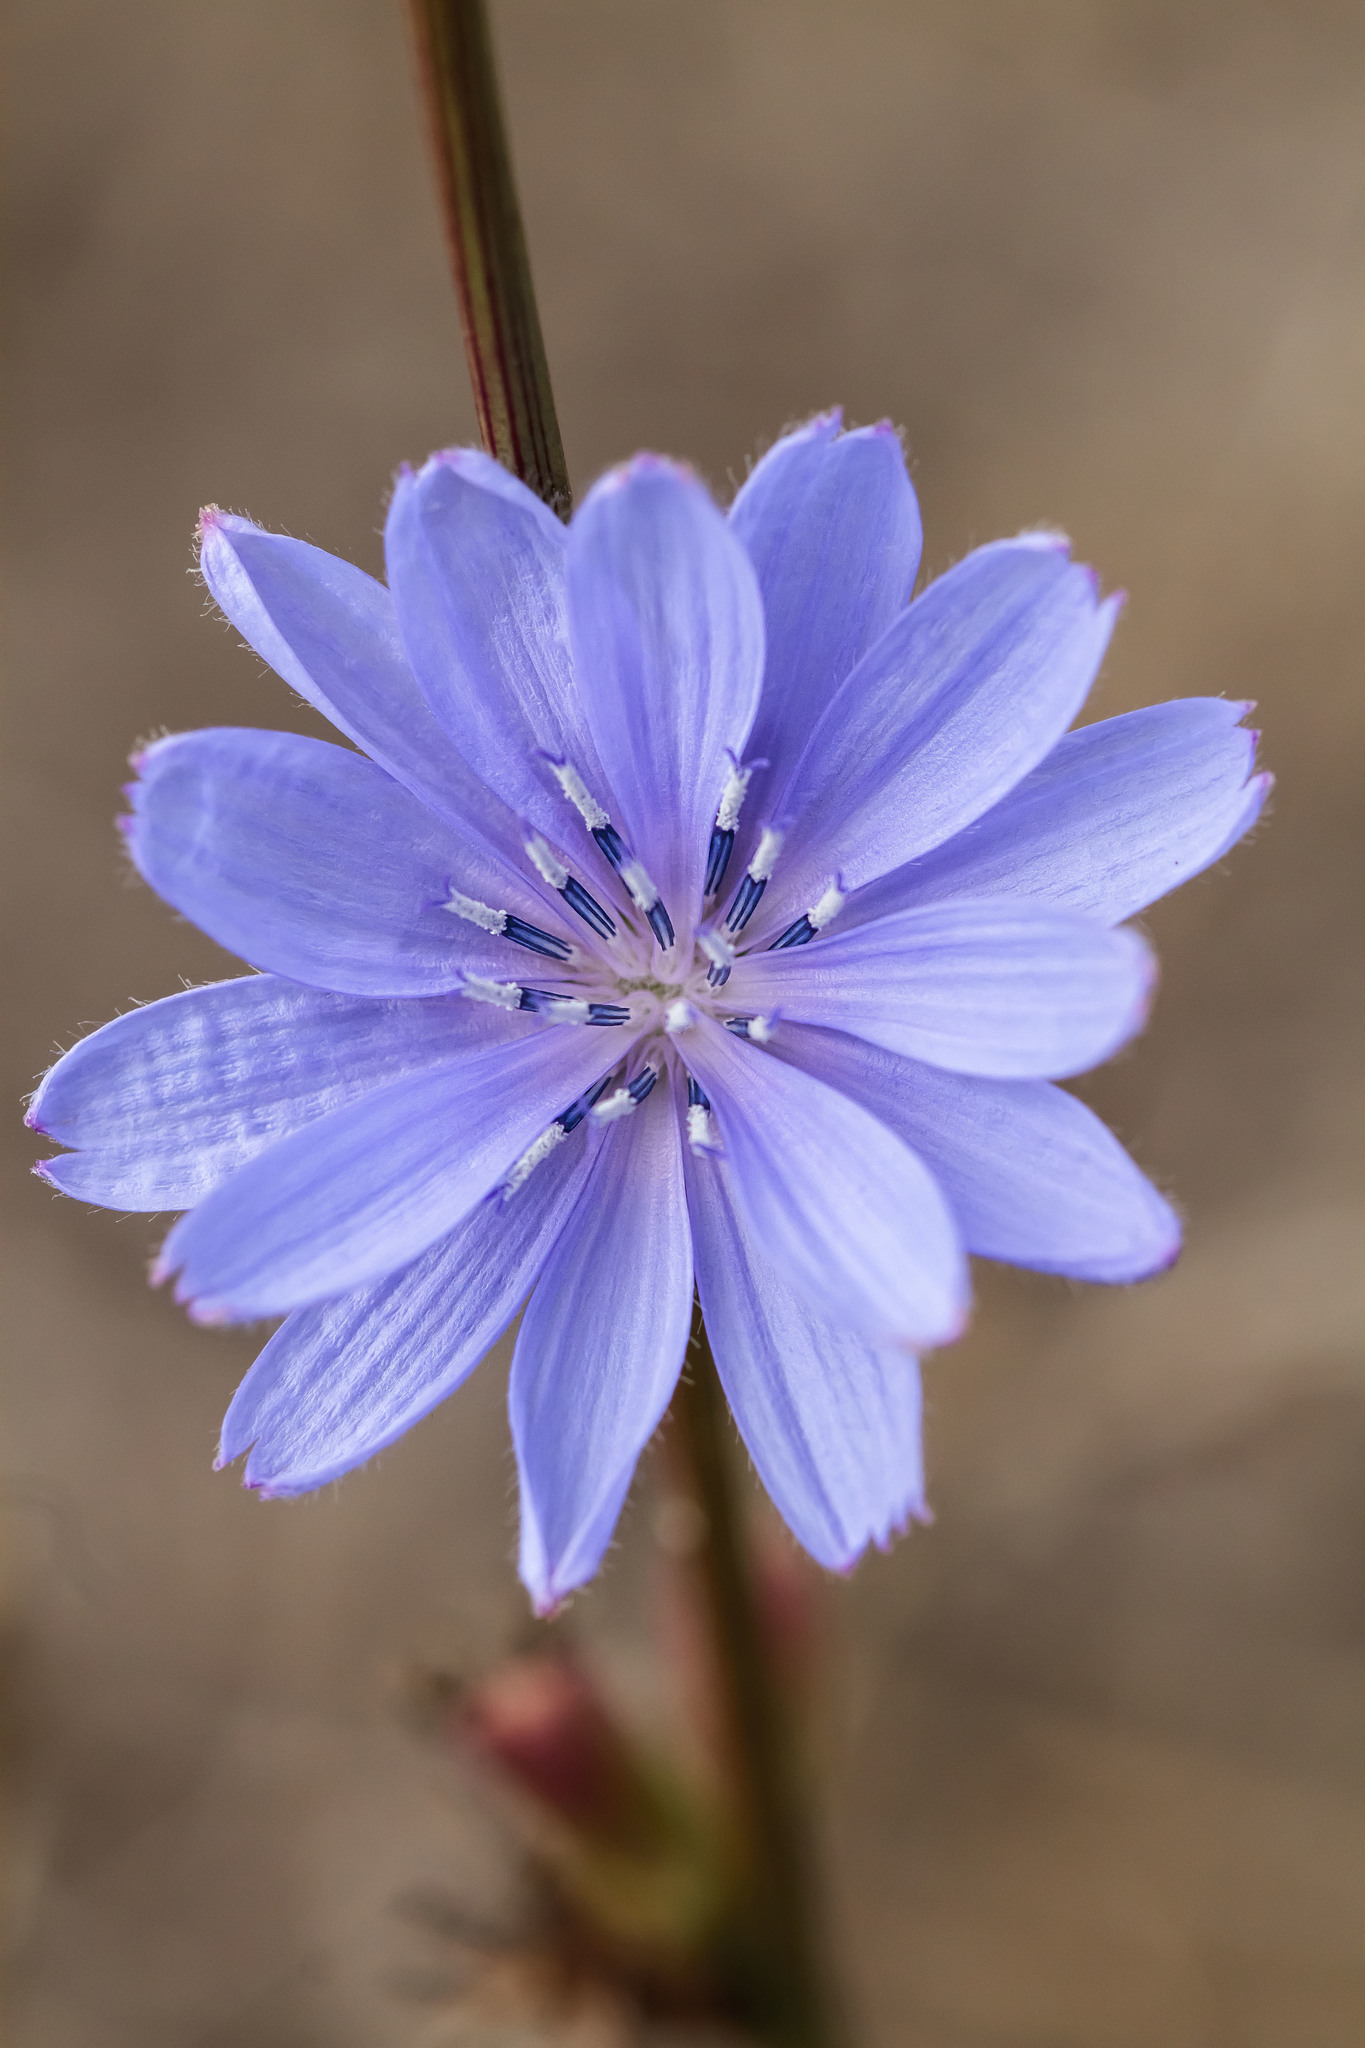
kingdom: Plantae
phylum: Tracheophyta
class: Magnoliopsida
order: Asterales
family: Asteraceae
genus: Cichorium
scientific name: Cichorium intybus
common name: Chicory
